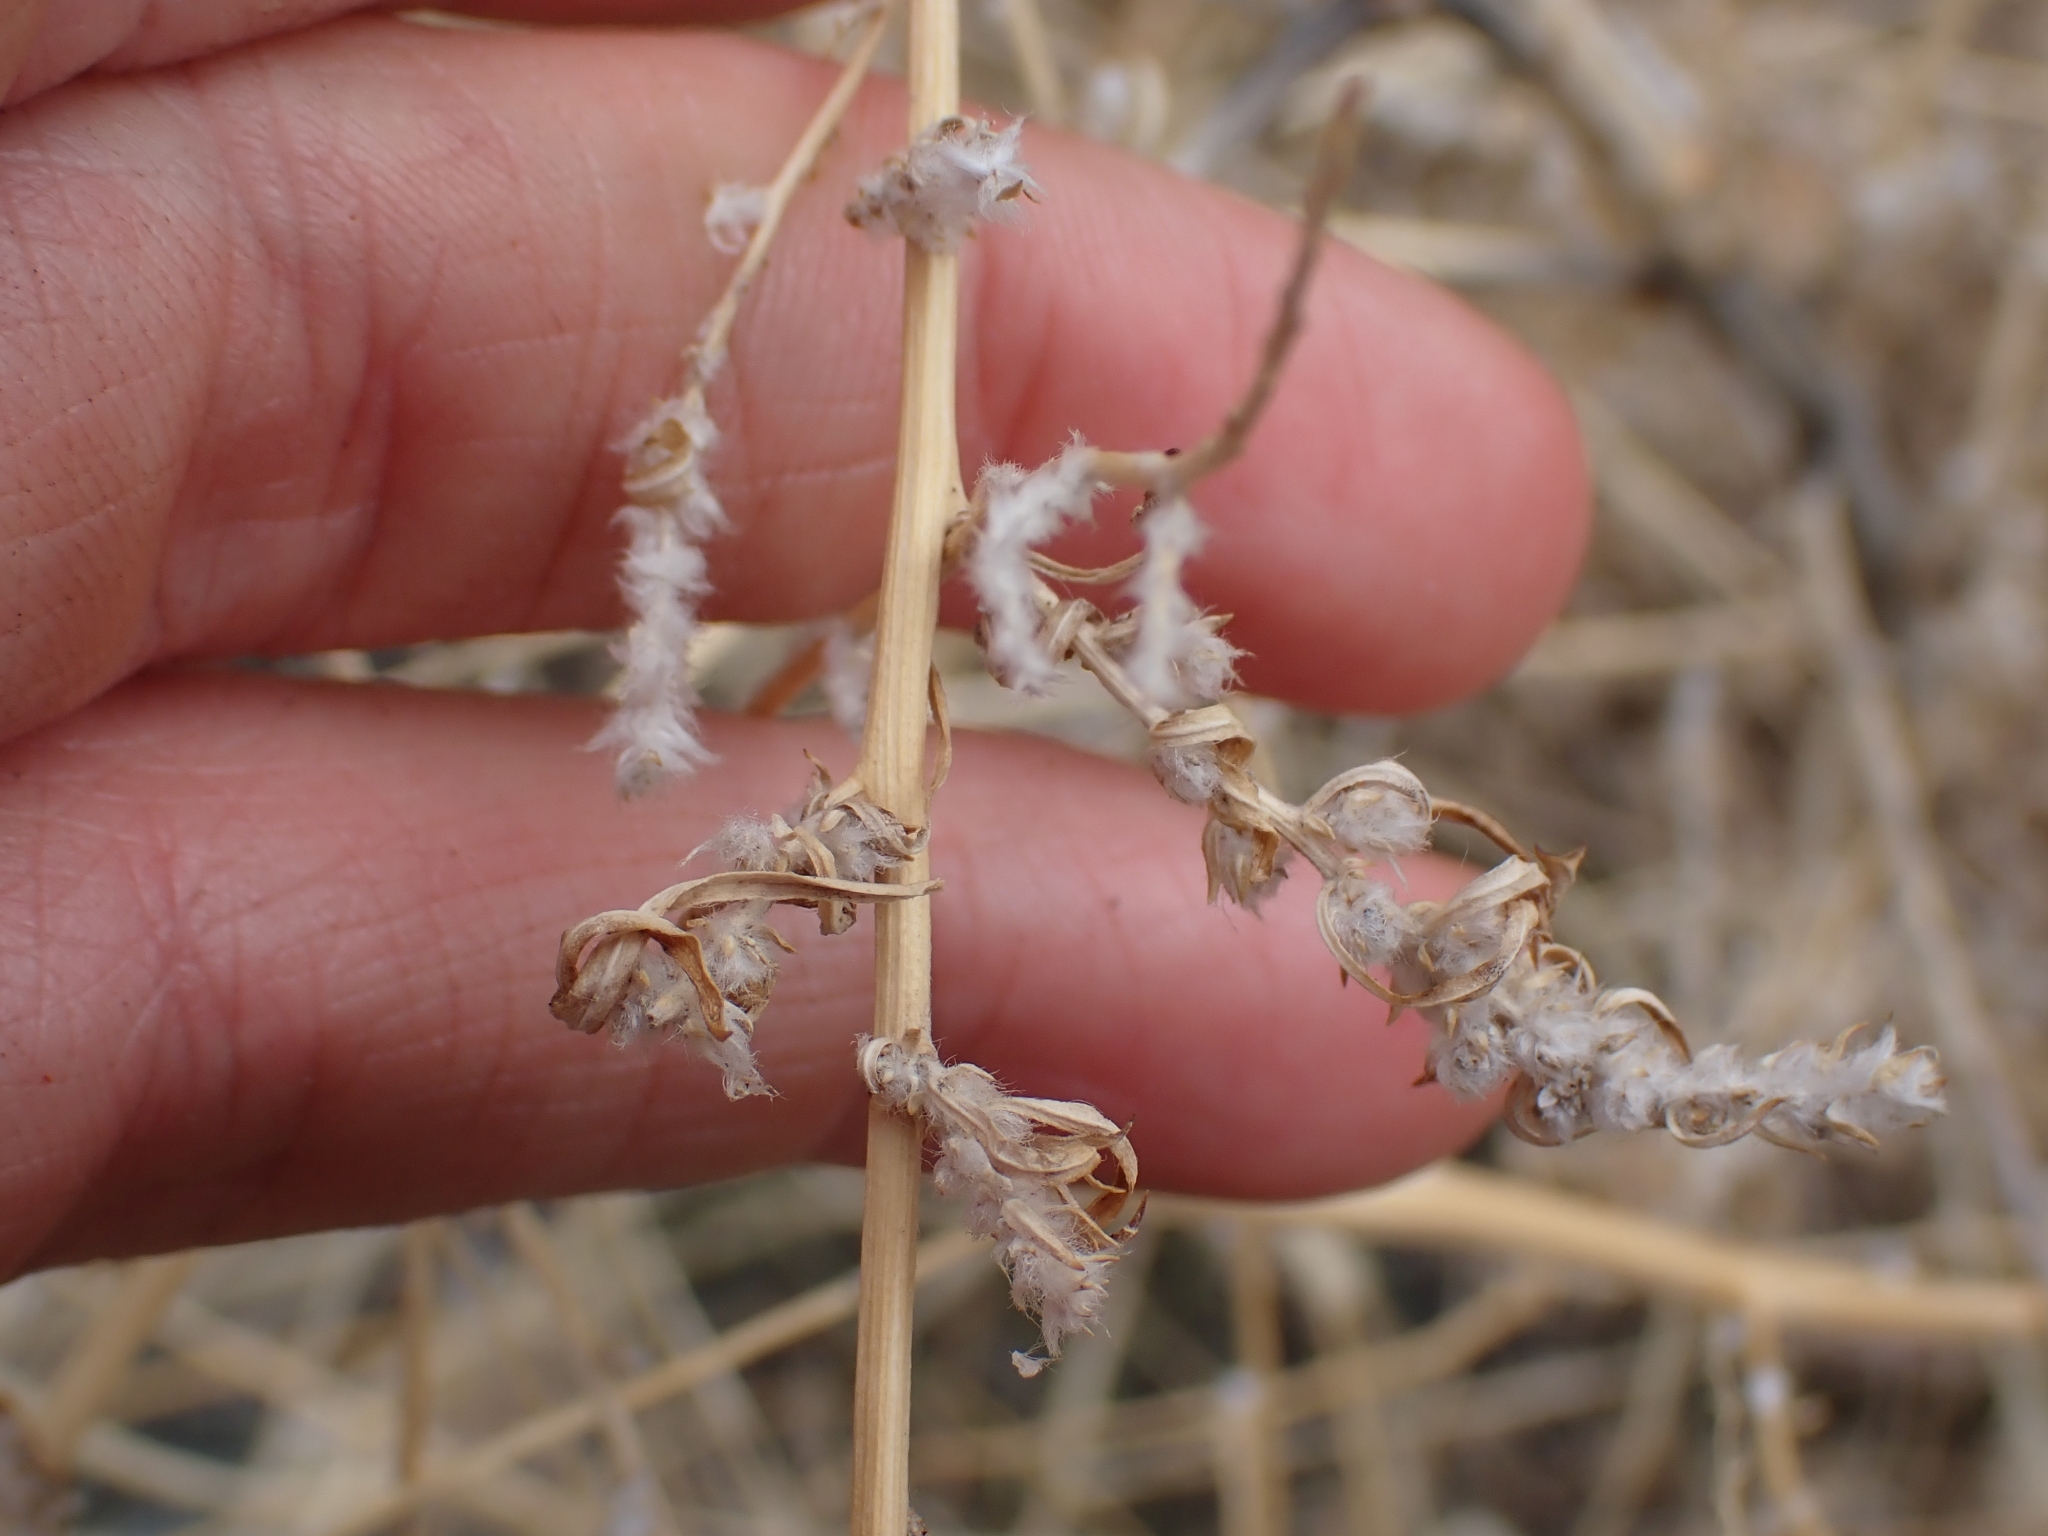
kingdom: Plantae
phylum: Tracheophyta
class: Magnoliopsida
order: Caryophyllales
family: Amaranthaceae
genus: Bassia
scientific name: Bassia scoparia
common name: Belvedere
